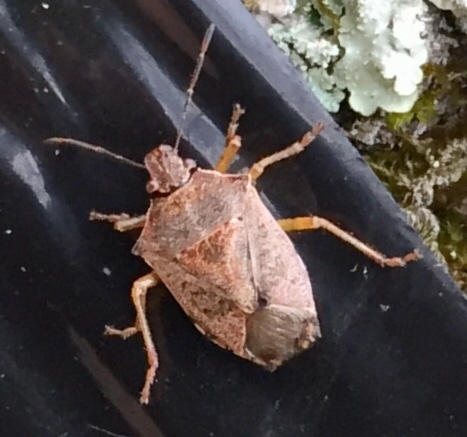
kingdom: Animalia
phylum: Arthropoda
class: Insecta
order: Hemiptera
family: Pentatomidae
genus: Podisus
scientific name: Podisus maculiventris
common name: Spined soldier bug
